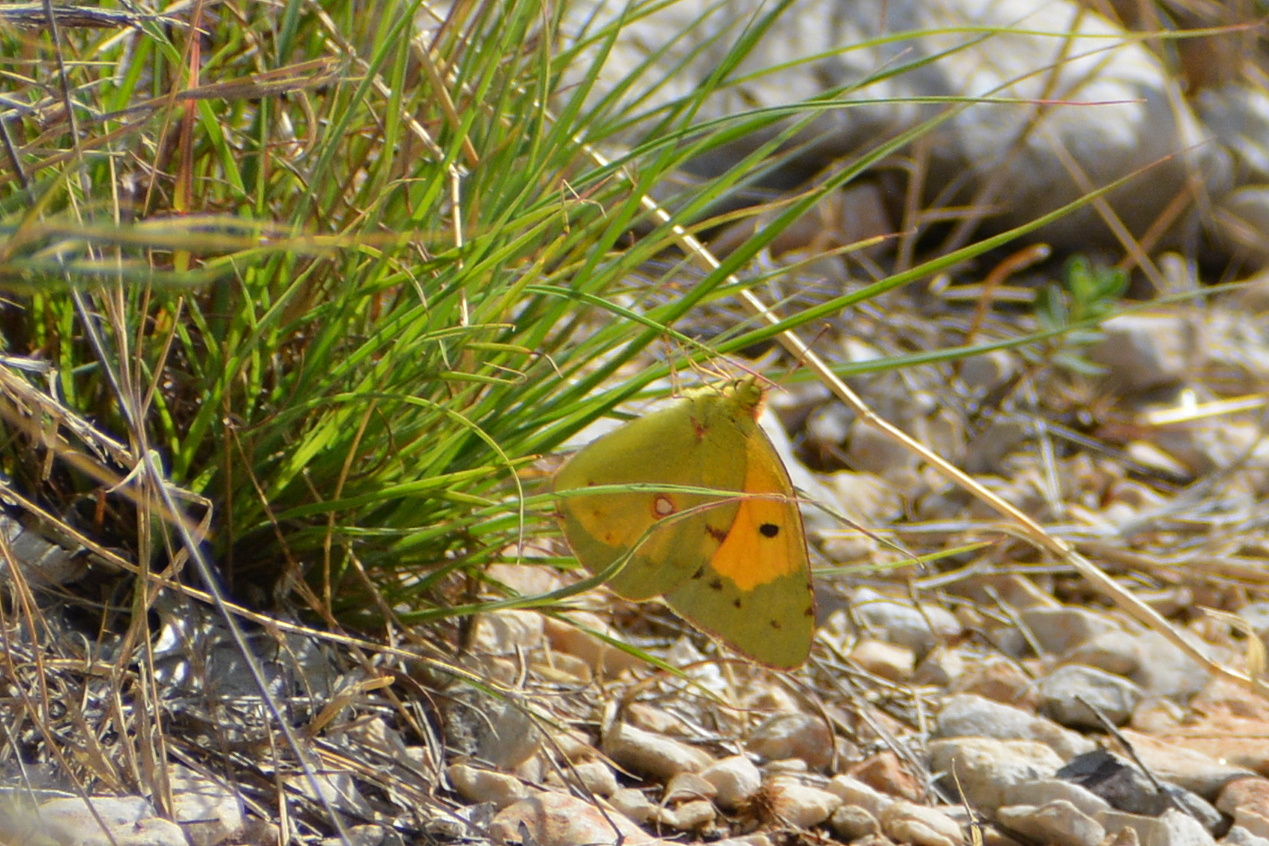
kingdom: Animalia
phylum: Arthropoda
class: Insecta
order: Lepidoptera
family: Pieridae
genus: Colias
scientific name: Colias croceus
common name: Clouded yellow
